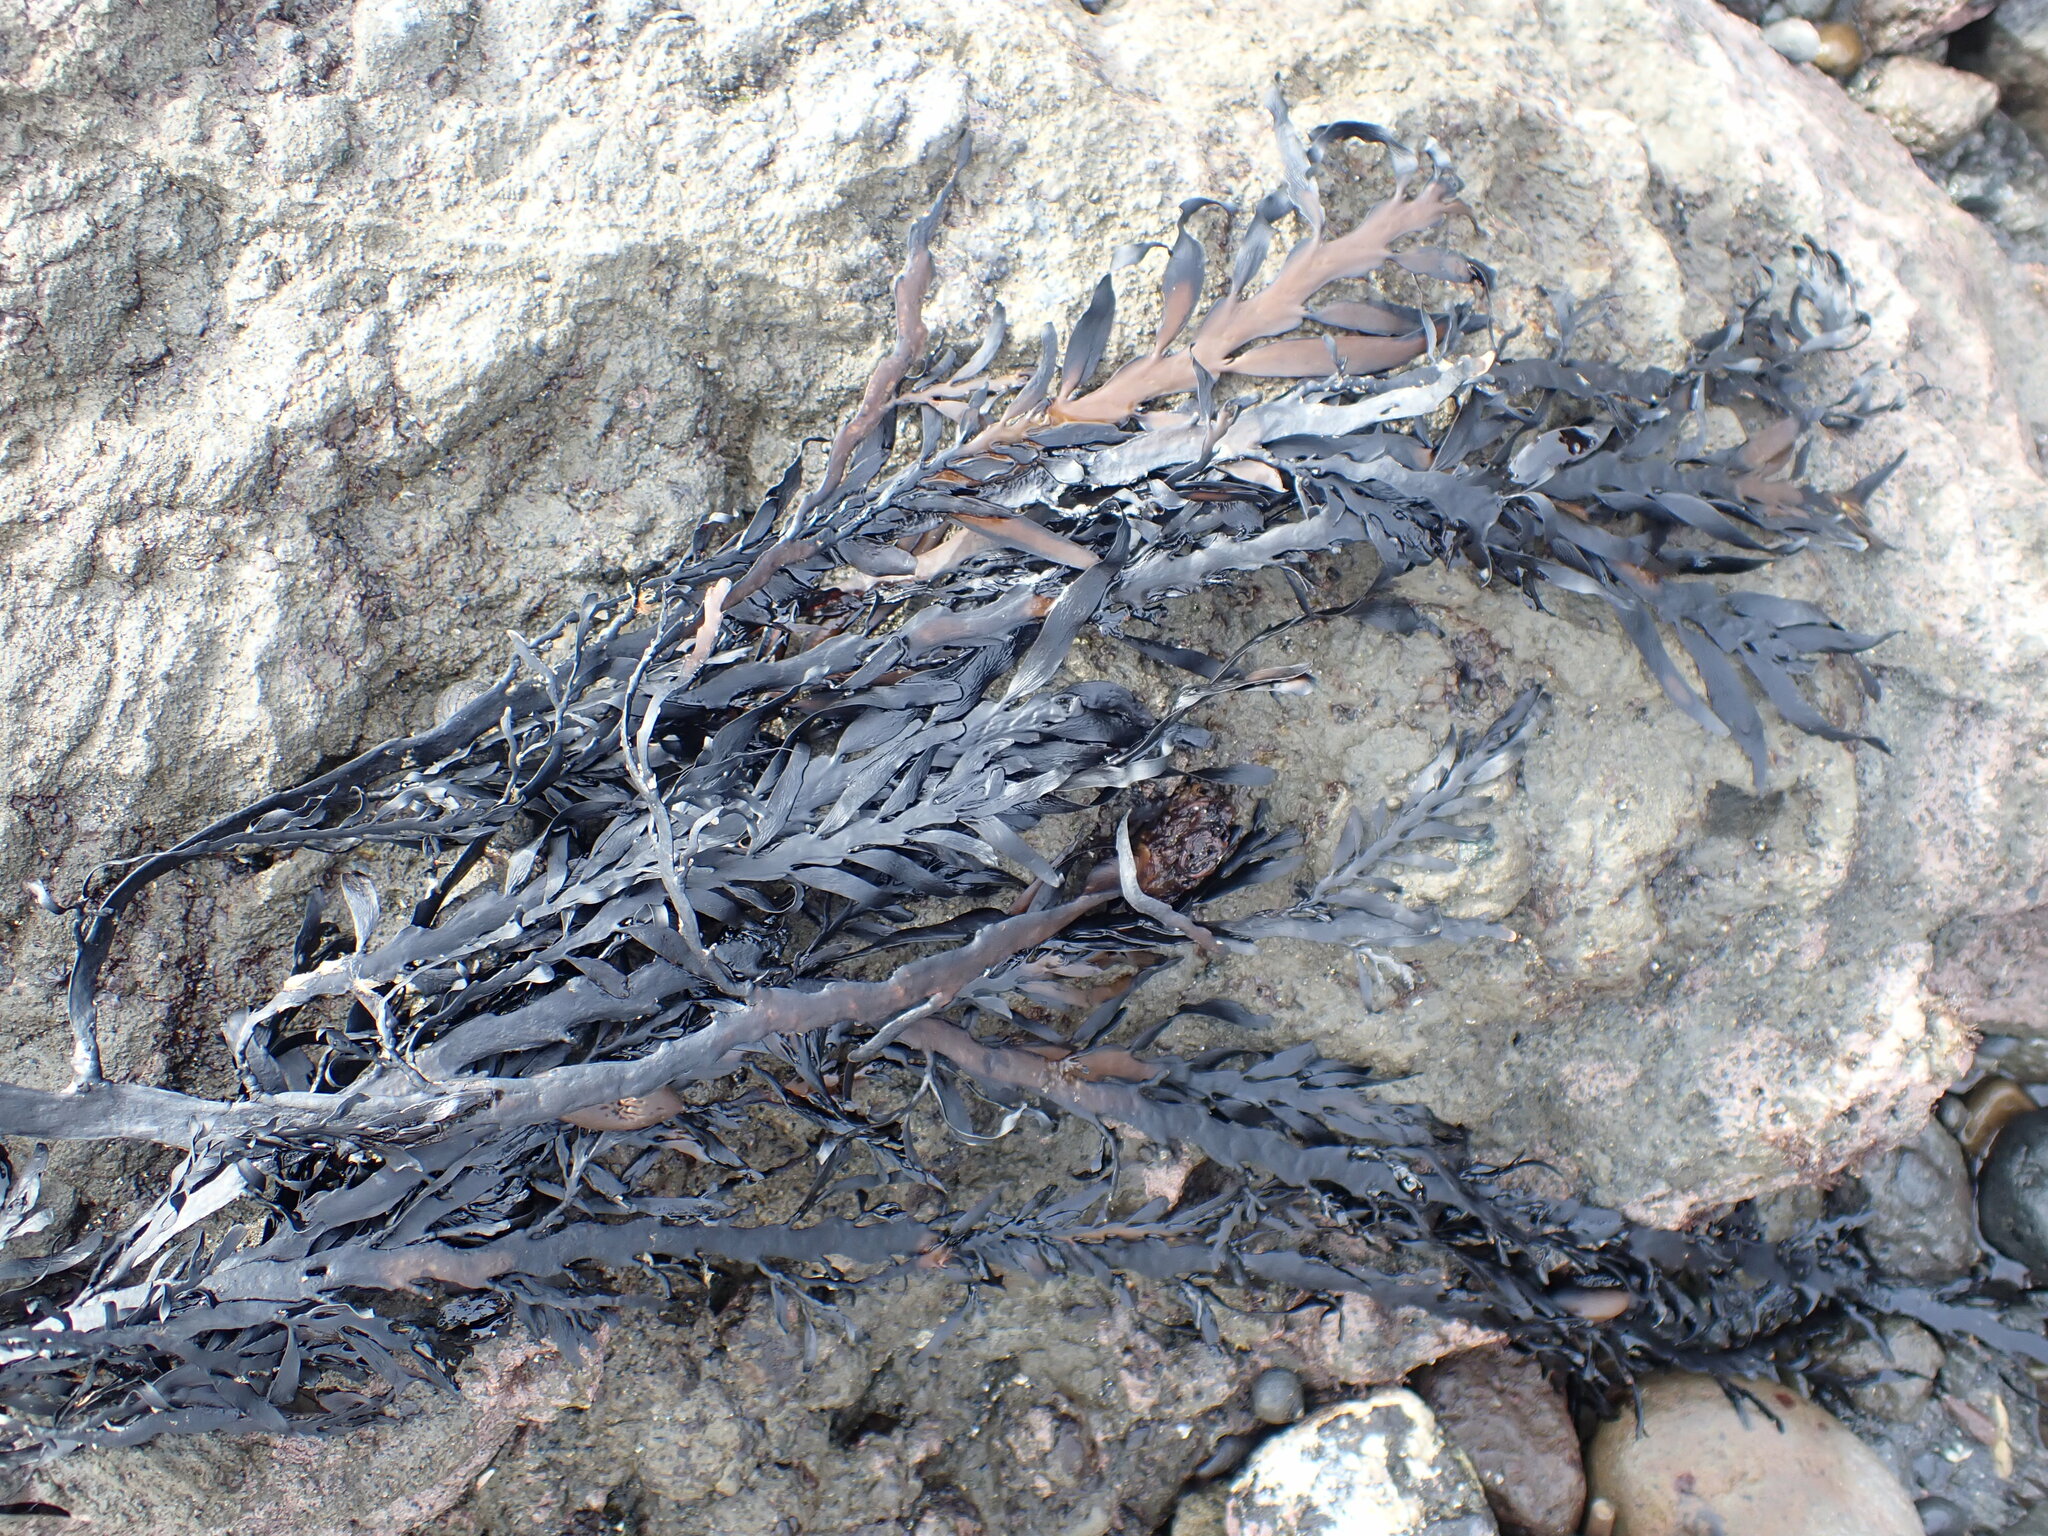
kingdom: Chromista
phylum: Ochrophyta
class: Phaeophyceae
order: Fucales
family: Sargassaceae
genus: Carpophyllum
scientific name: Carpophyllum maschalocarpum
